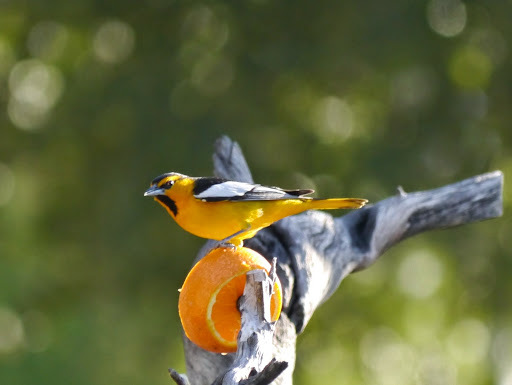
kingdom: Animalia
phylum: Chordata
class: Aves
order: Passeriformes
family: Icteridae
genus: Icterus
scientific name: Icterus bullockii
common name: Bullock's oriole
